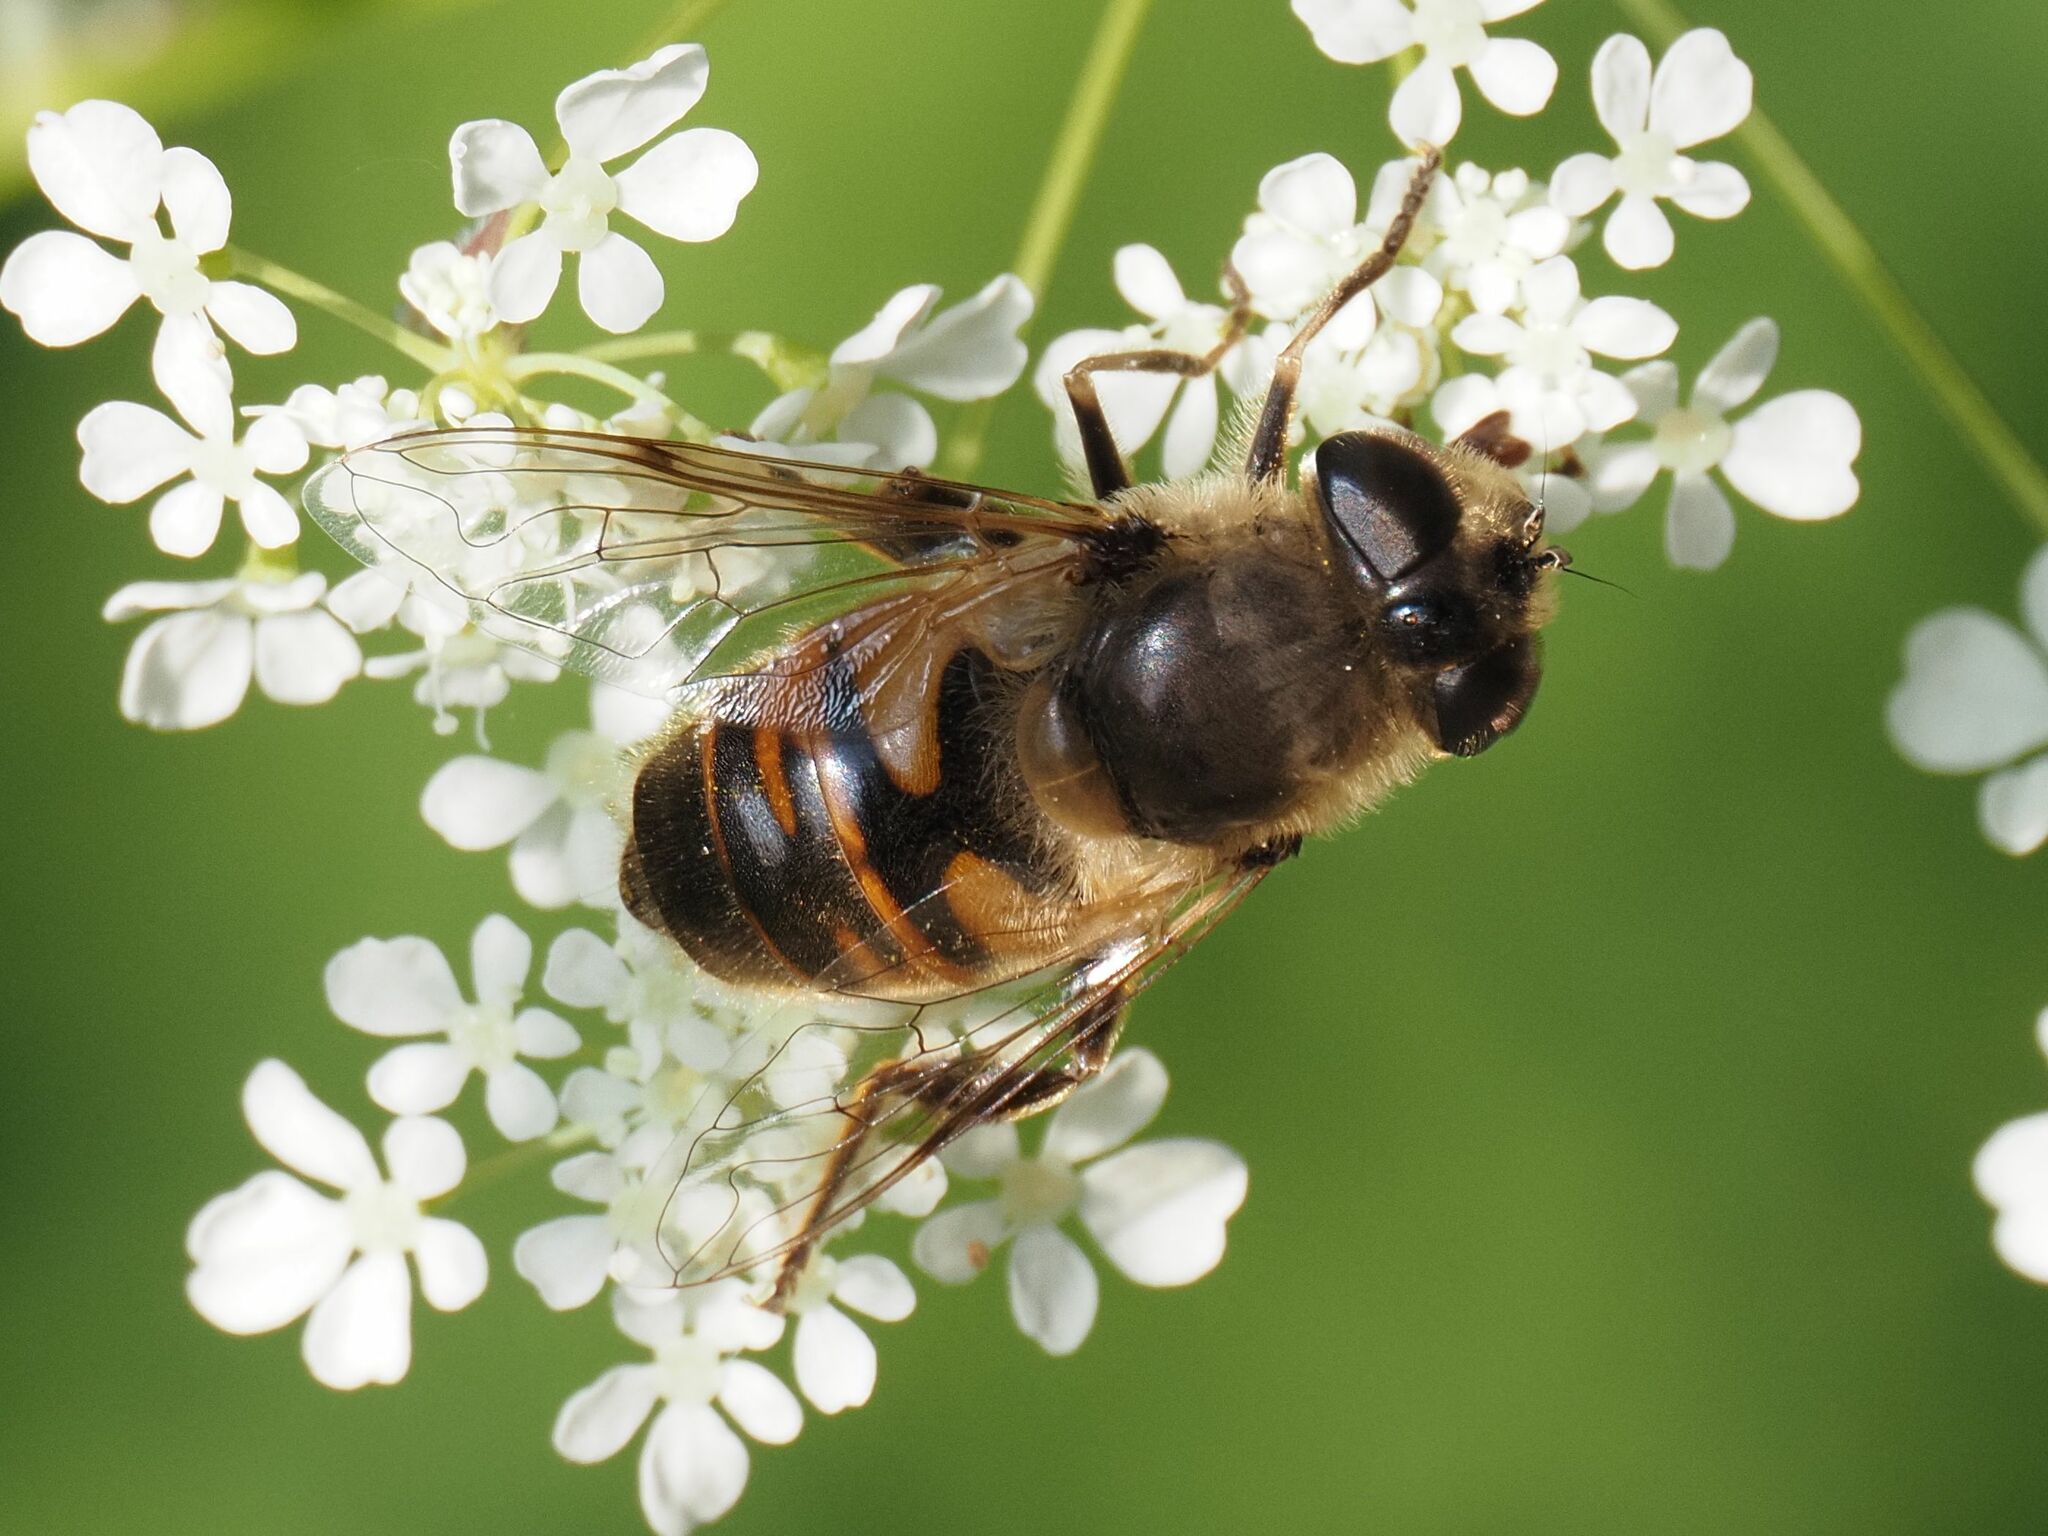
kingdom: Animalia
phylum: Arthropoda
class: Insecta
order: Diptera
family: Syrphidae
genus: Eristalis
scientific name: Eristalis tenax
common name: Drone fly
